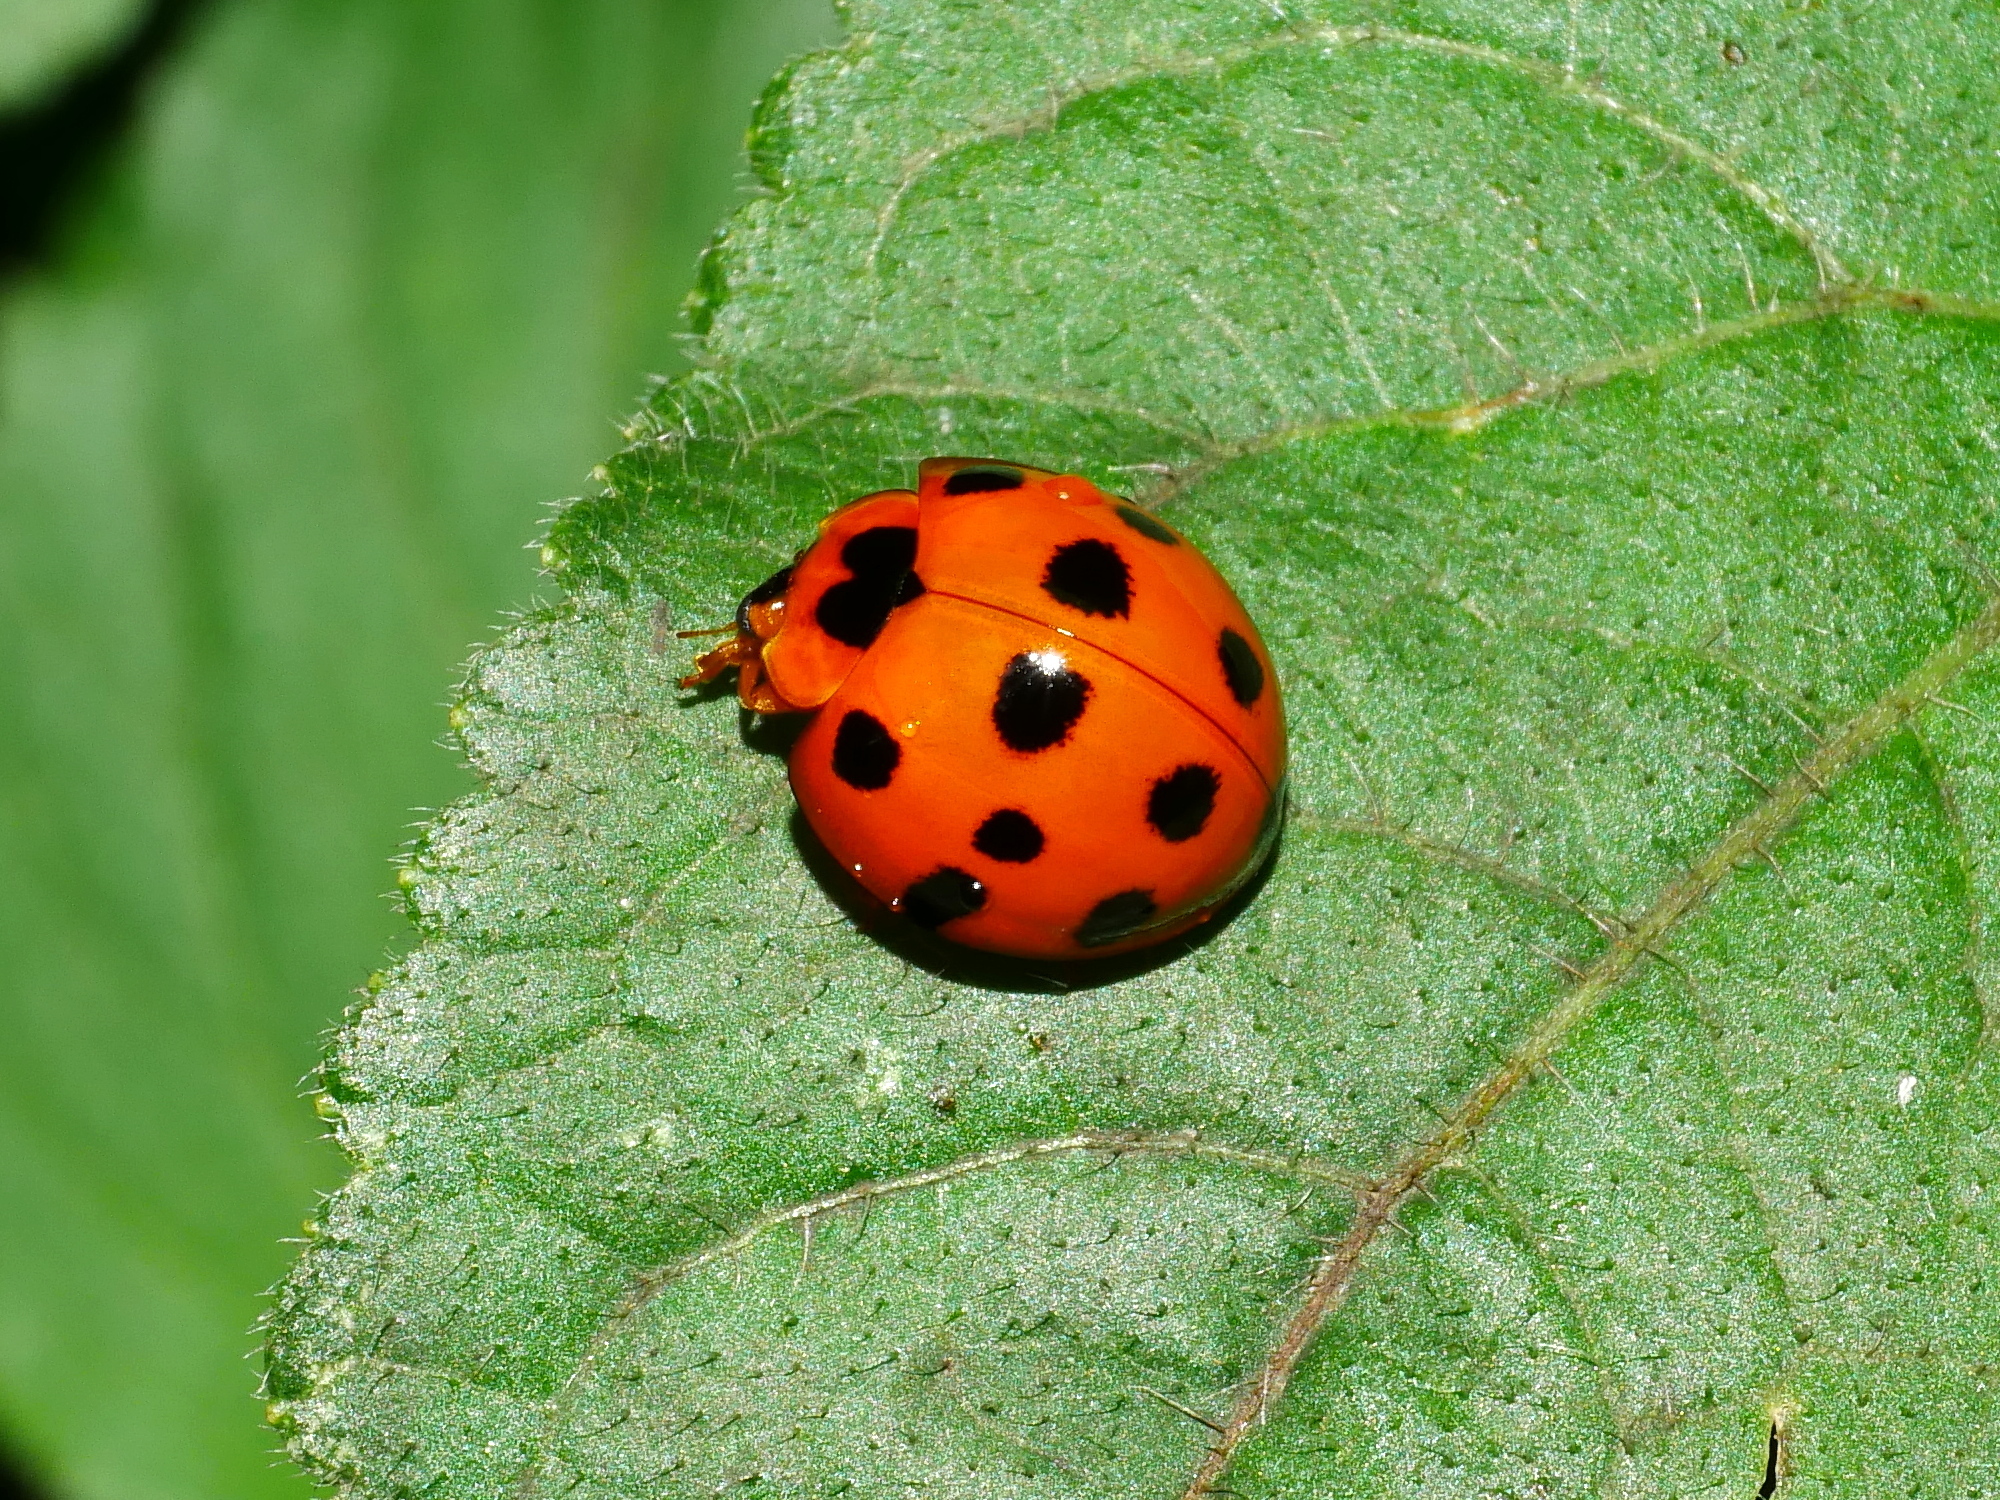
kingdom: Animalia
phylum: Arthropoda
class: Insecta
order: Coleoptera
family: Coccinellidae
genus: Harmonia
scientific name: Harmonia dimidiata
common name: Ladybird beetle
